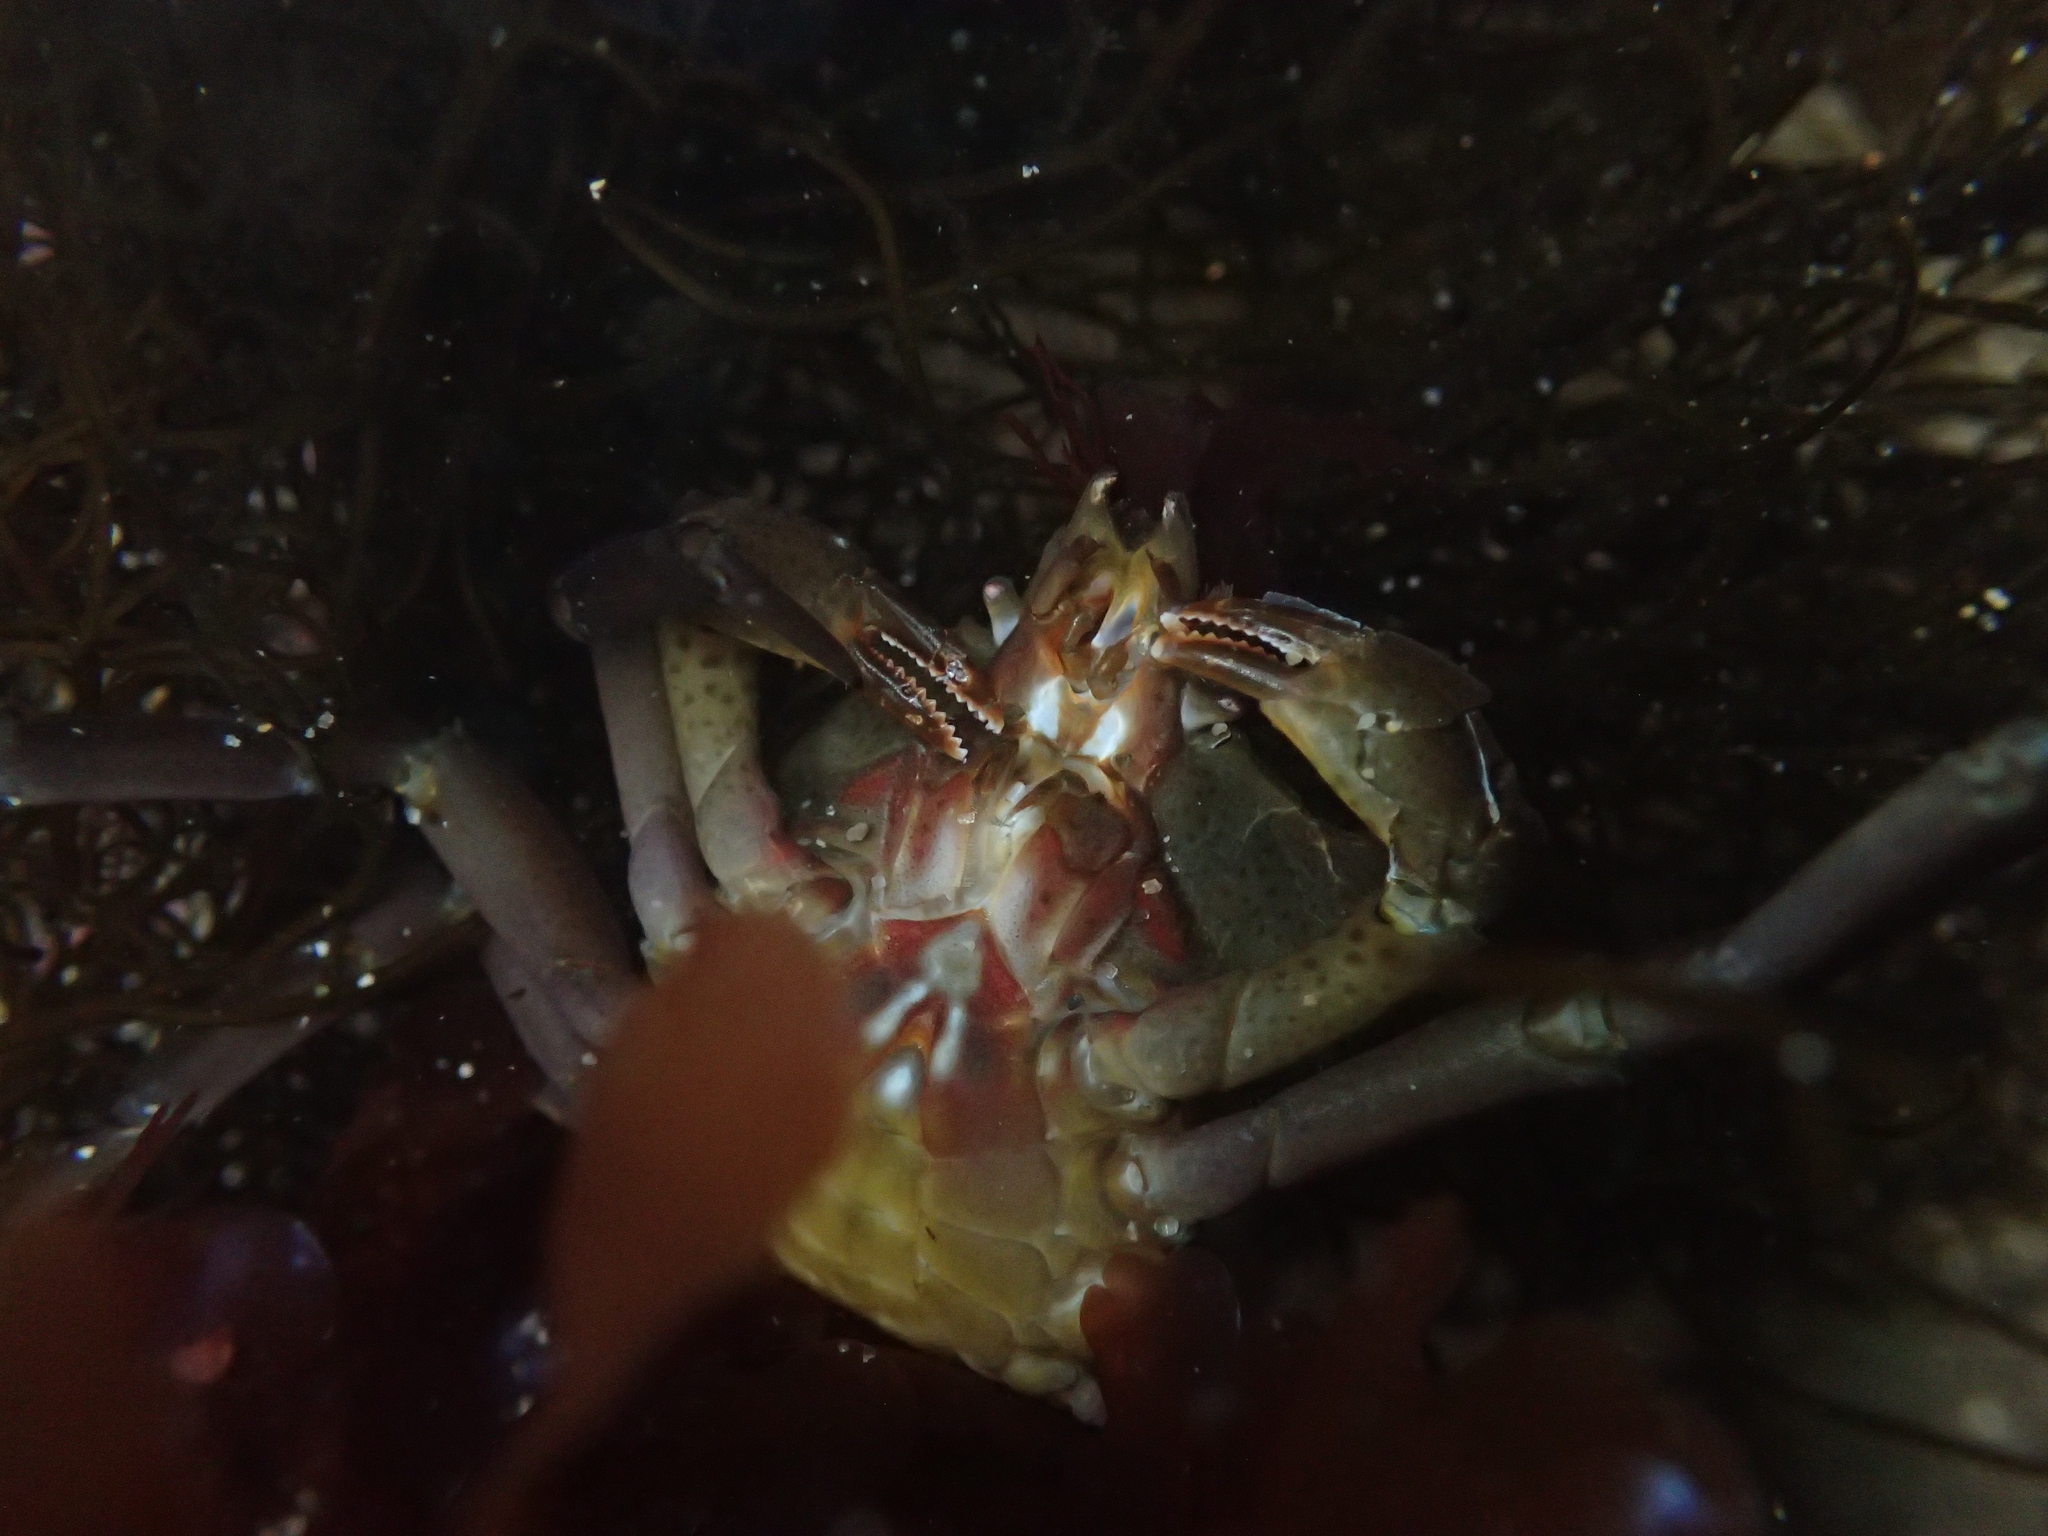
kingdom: Animalia
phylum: Arthropoda
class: Malacostraca
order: Decapoda
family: Epialtidae
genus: Pugettia
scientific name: Pugettia producta
